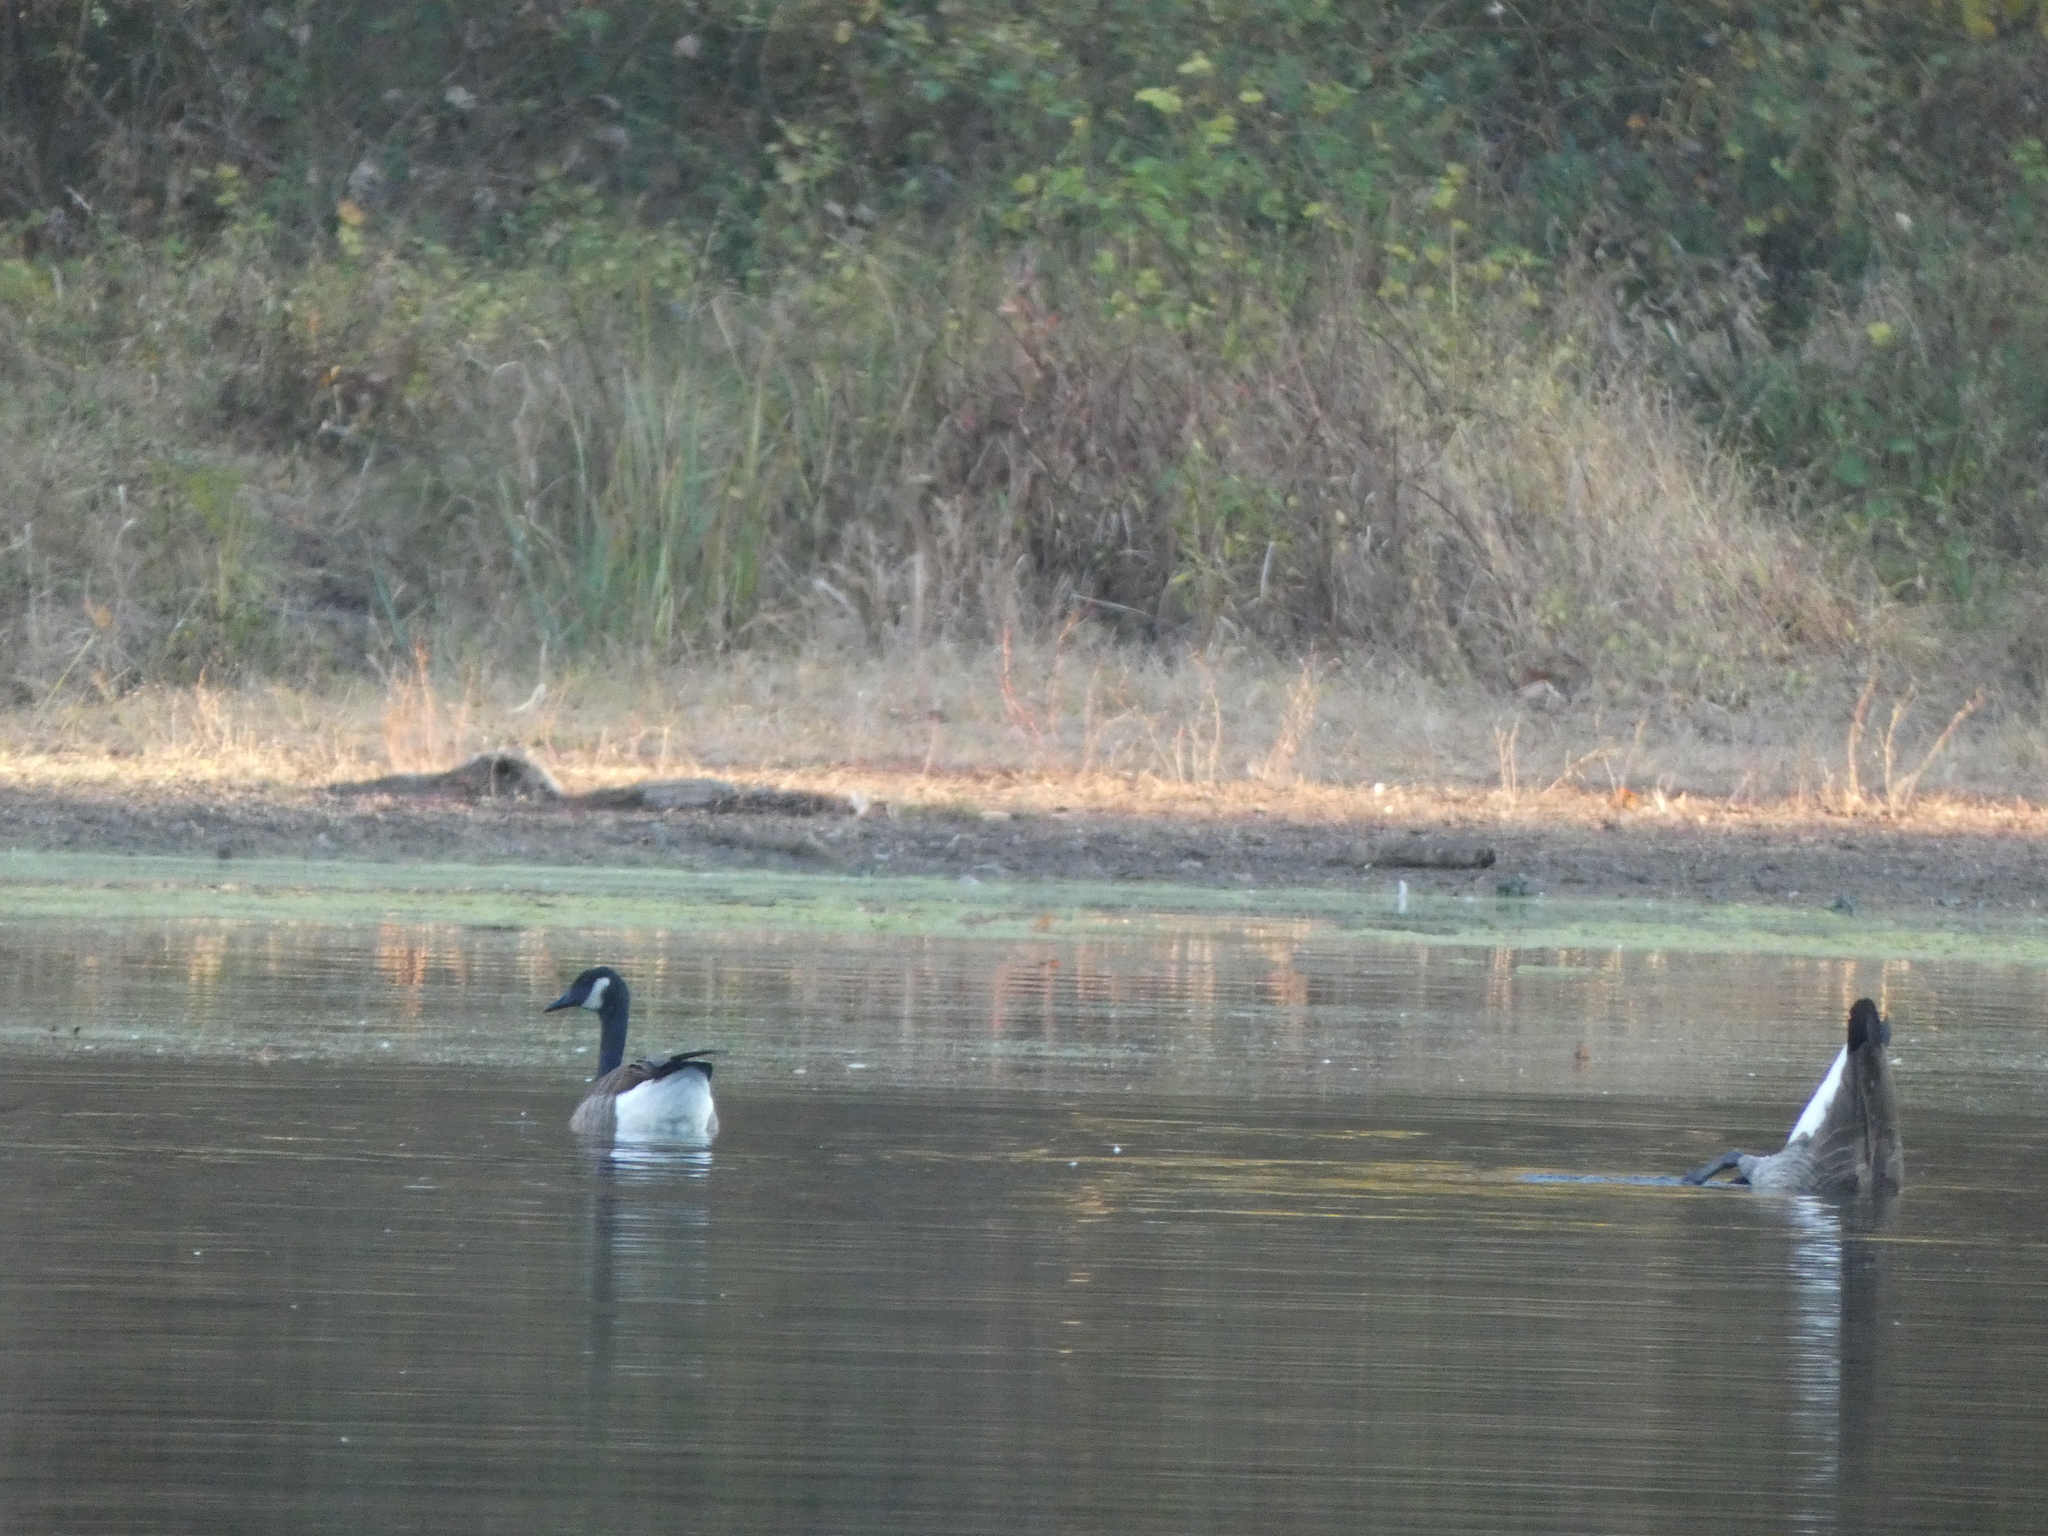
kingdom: Animalia
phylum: Chordata
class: Aves
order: Anseriformes
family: Anatidae
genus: Branta
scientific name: Branta canadensis
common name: Canada goose
